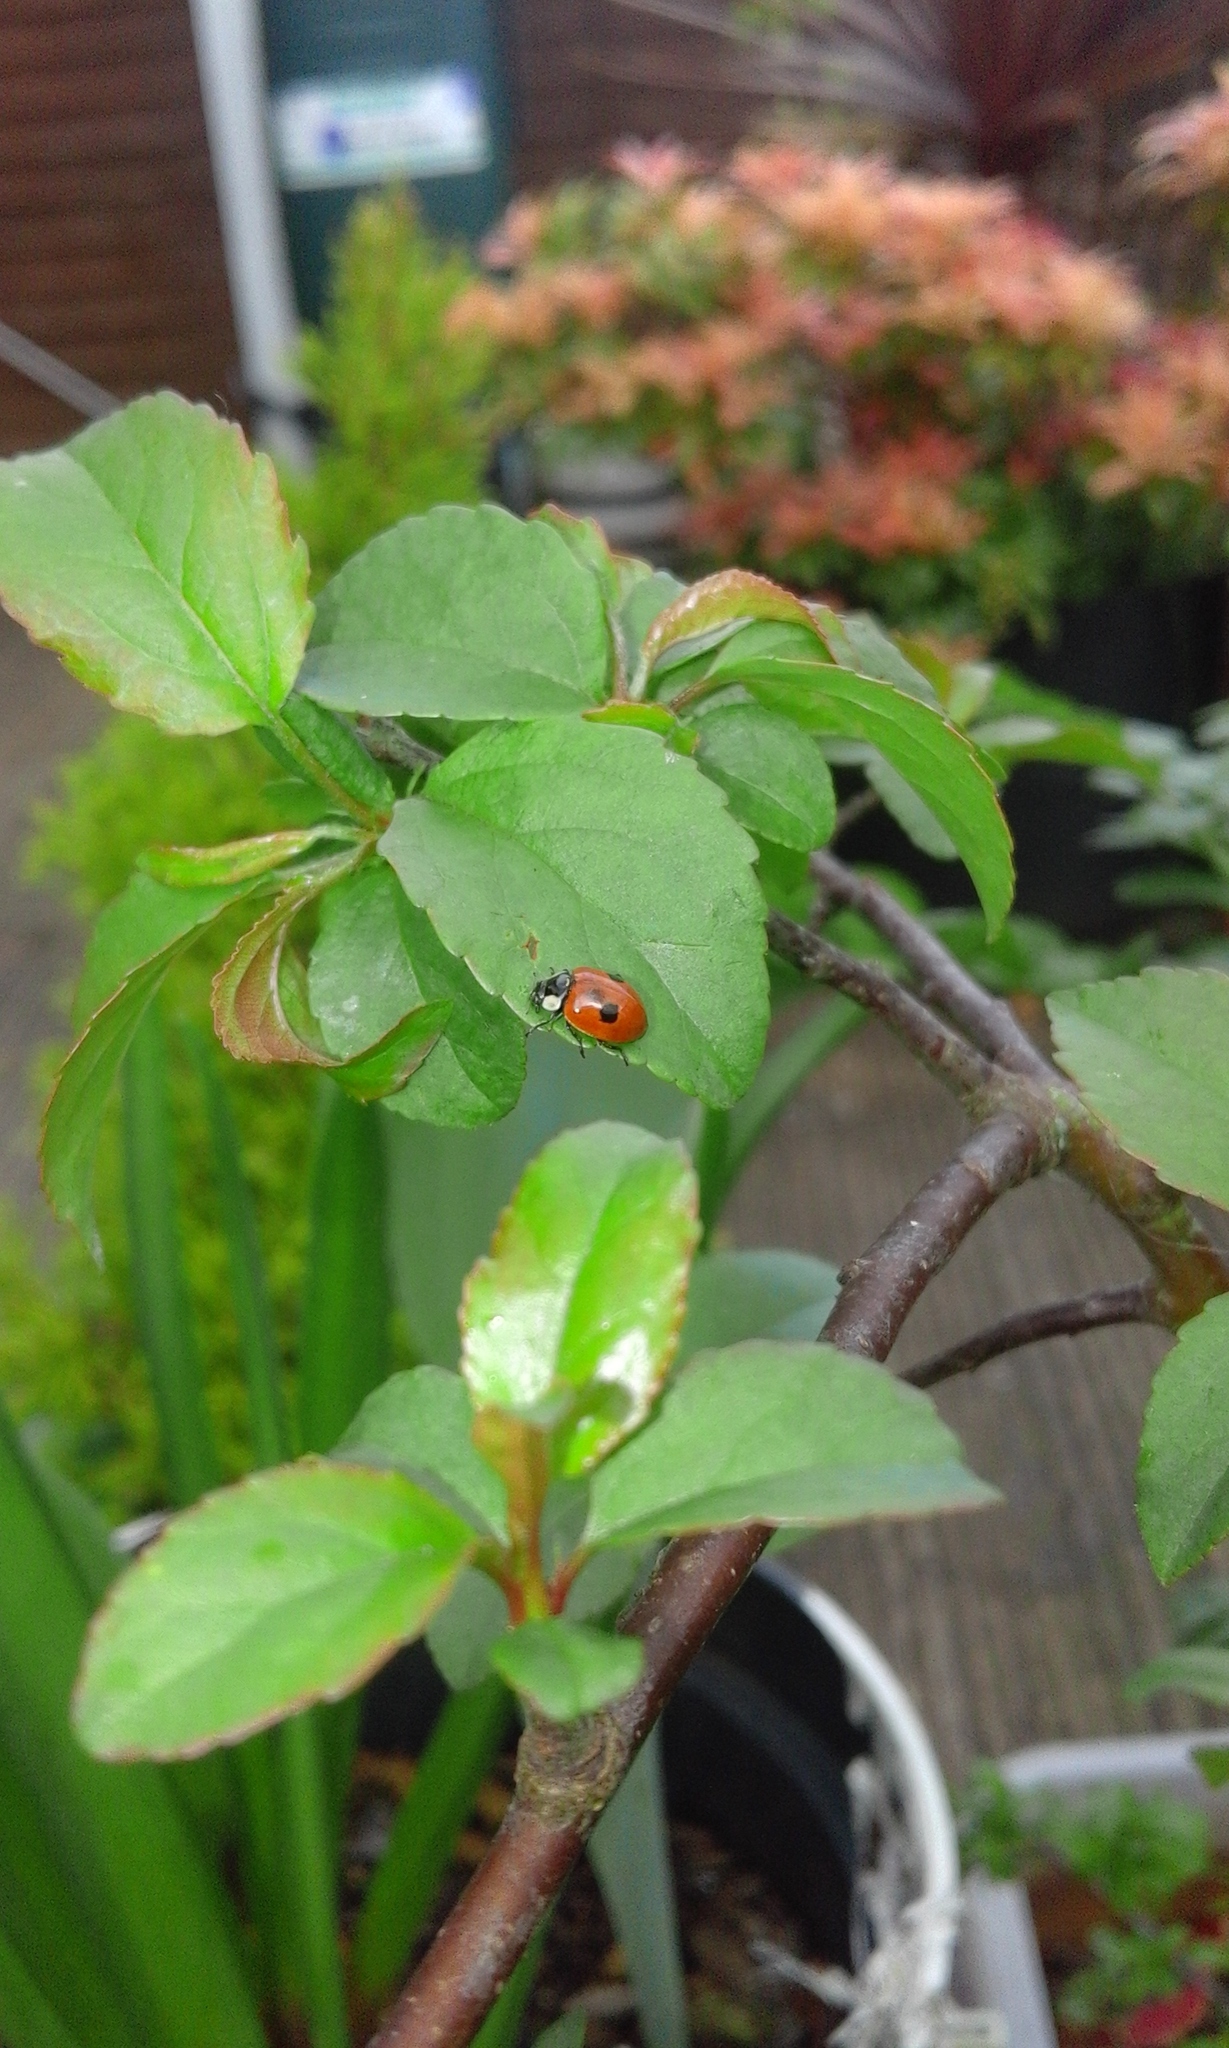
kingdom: Animalia
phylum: Arthropoda
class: Insecta
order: Coleoptera
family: Coccinellidae
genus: Adalia
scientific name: Adalia bipunctata
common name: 2-spot ladybird
